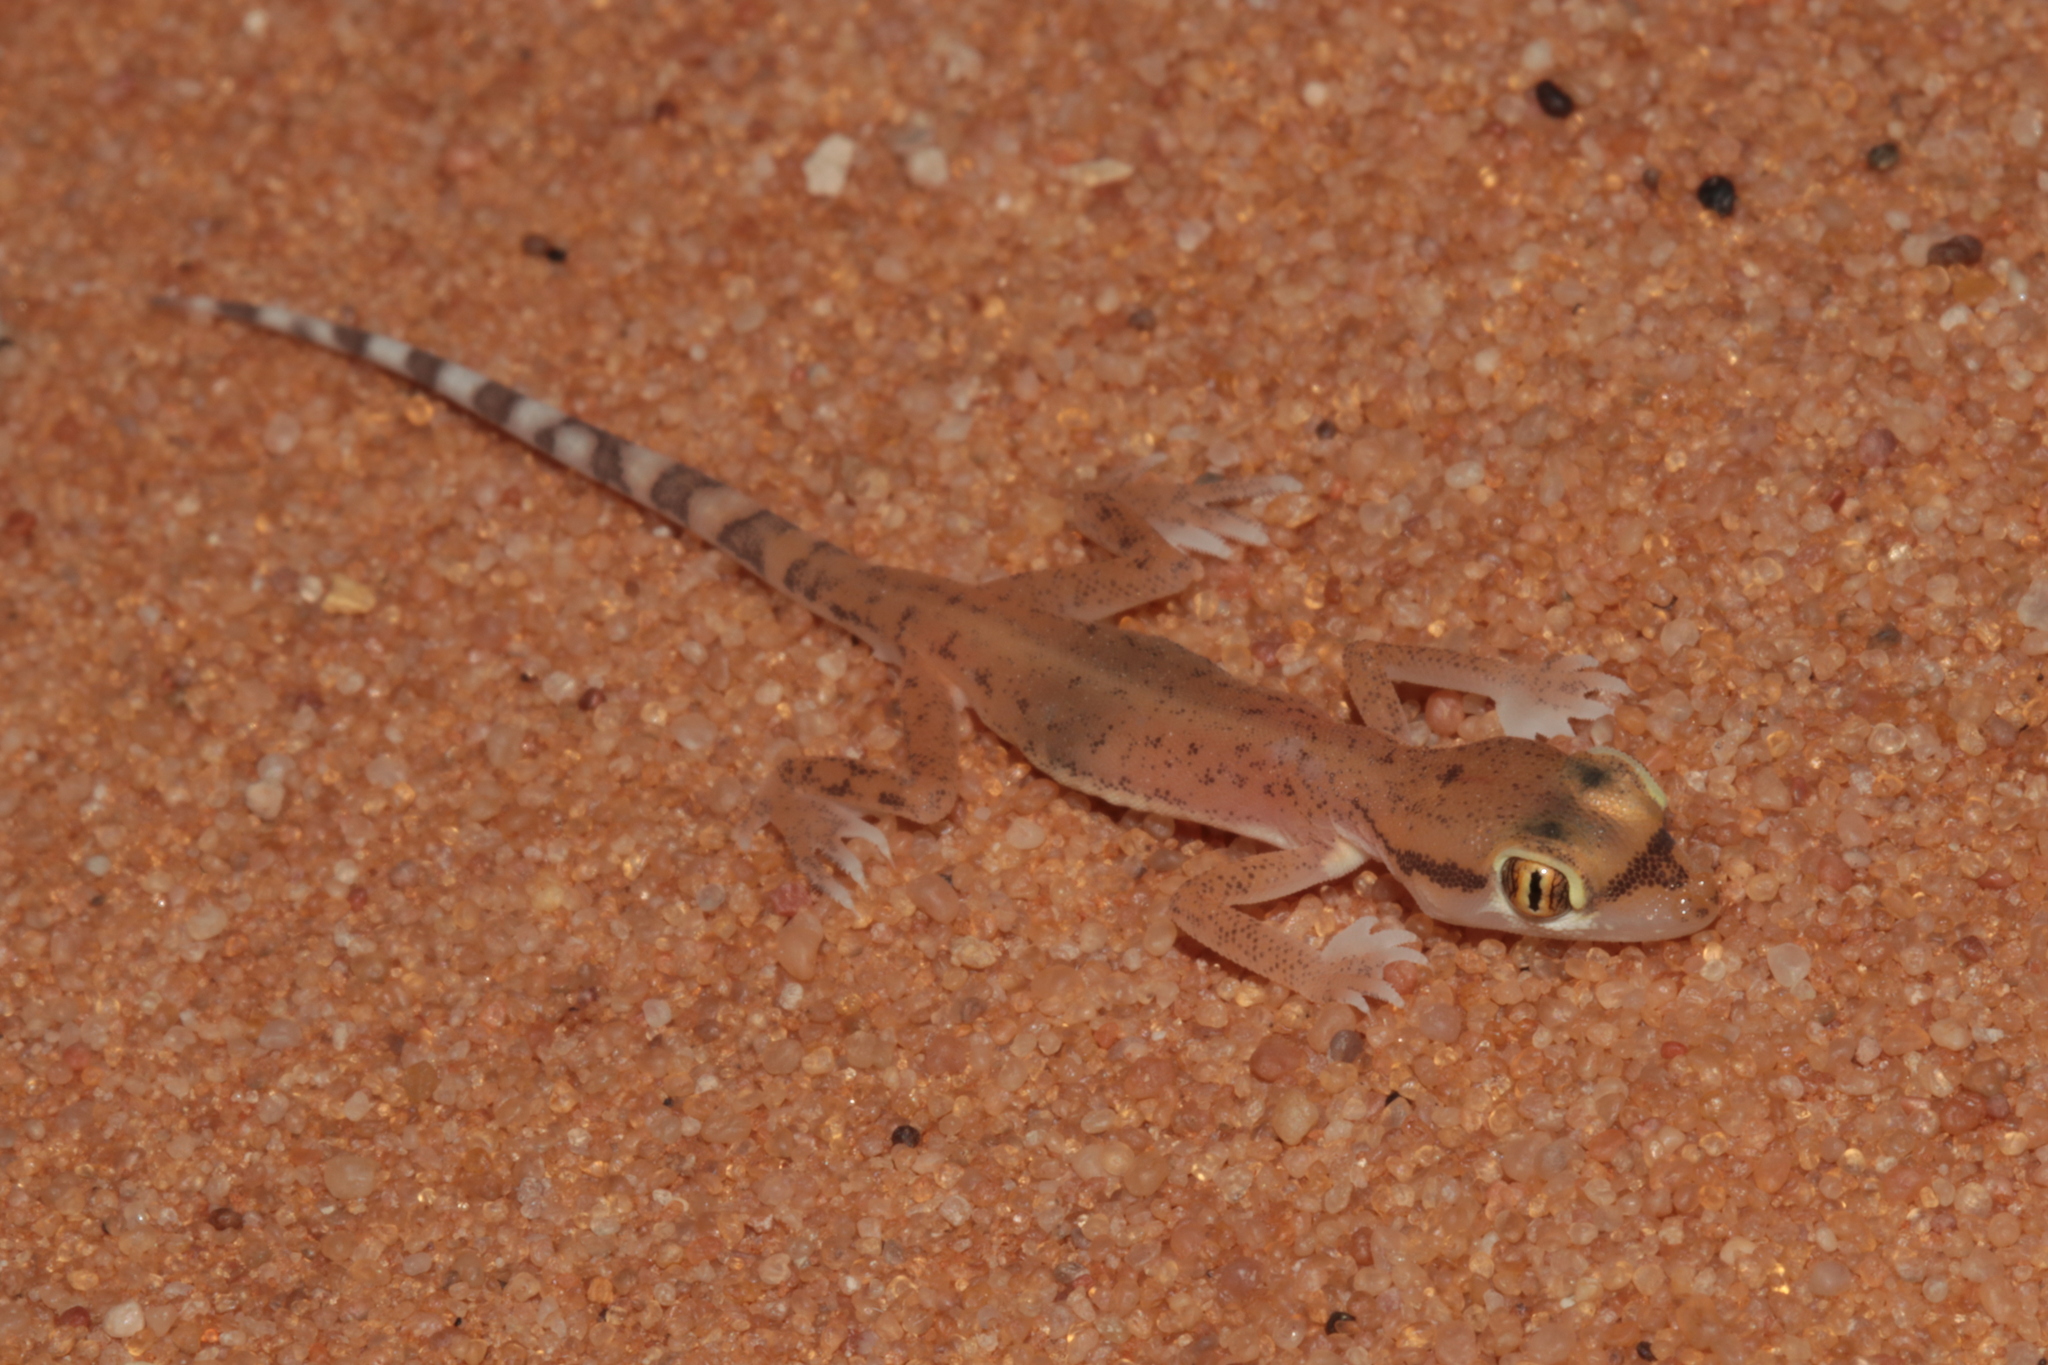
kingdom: Animalia
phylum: Chordata
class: Squamata
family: Gekkonidae
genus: Trigonodactylus
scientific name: Trigonodactylus arabicus
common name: Arabian sand gecko
